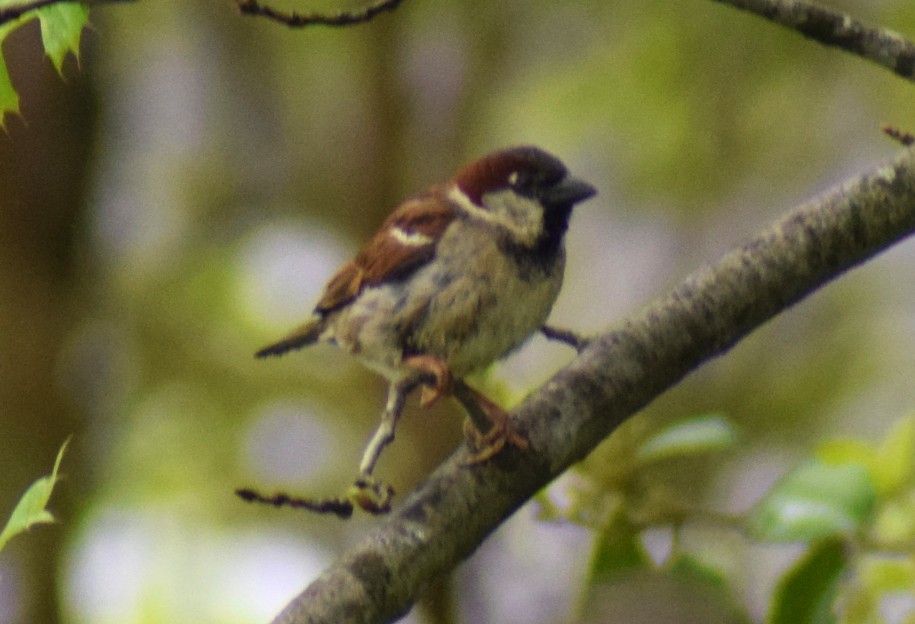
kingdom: Animalia
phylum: Chordata
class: Aves
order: Passeriformes
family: Passeridae
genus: Passer
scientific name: Passer domesticus
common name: House sparrow
